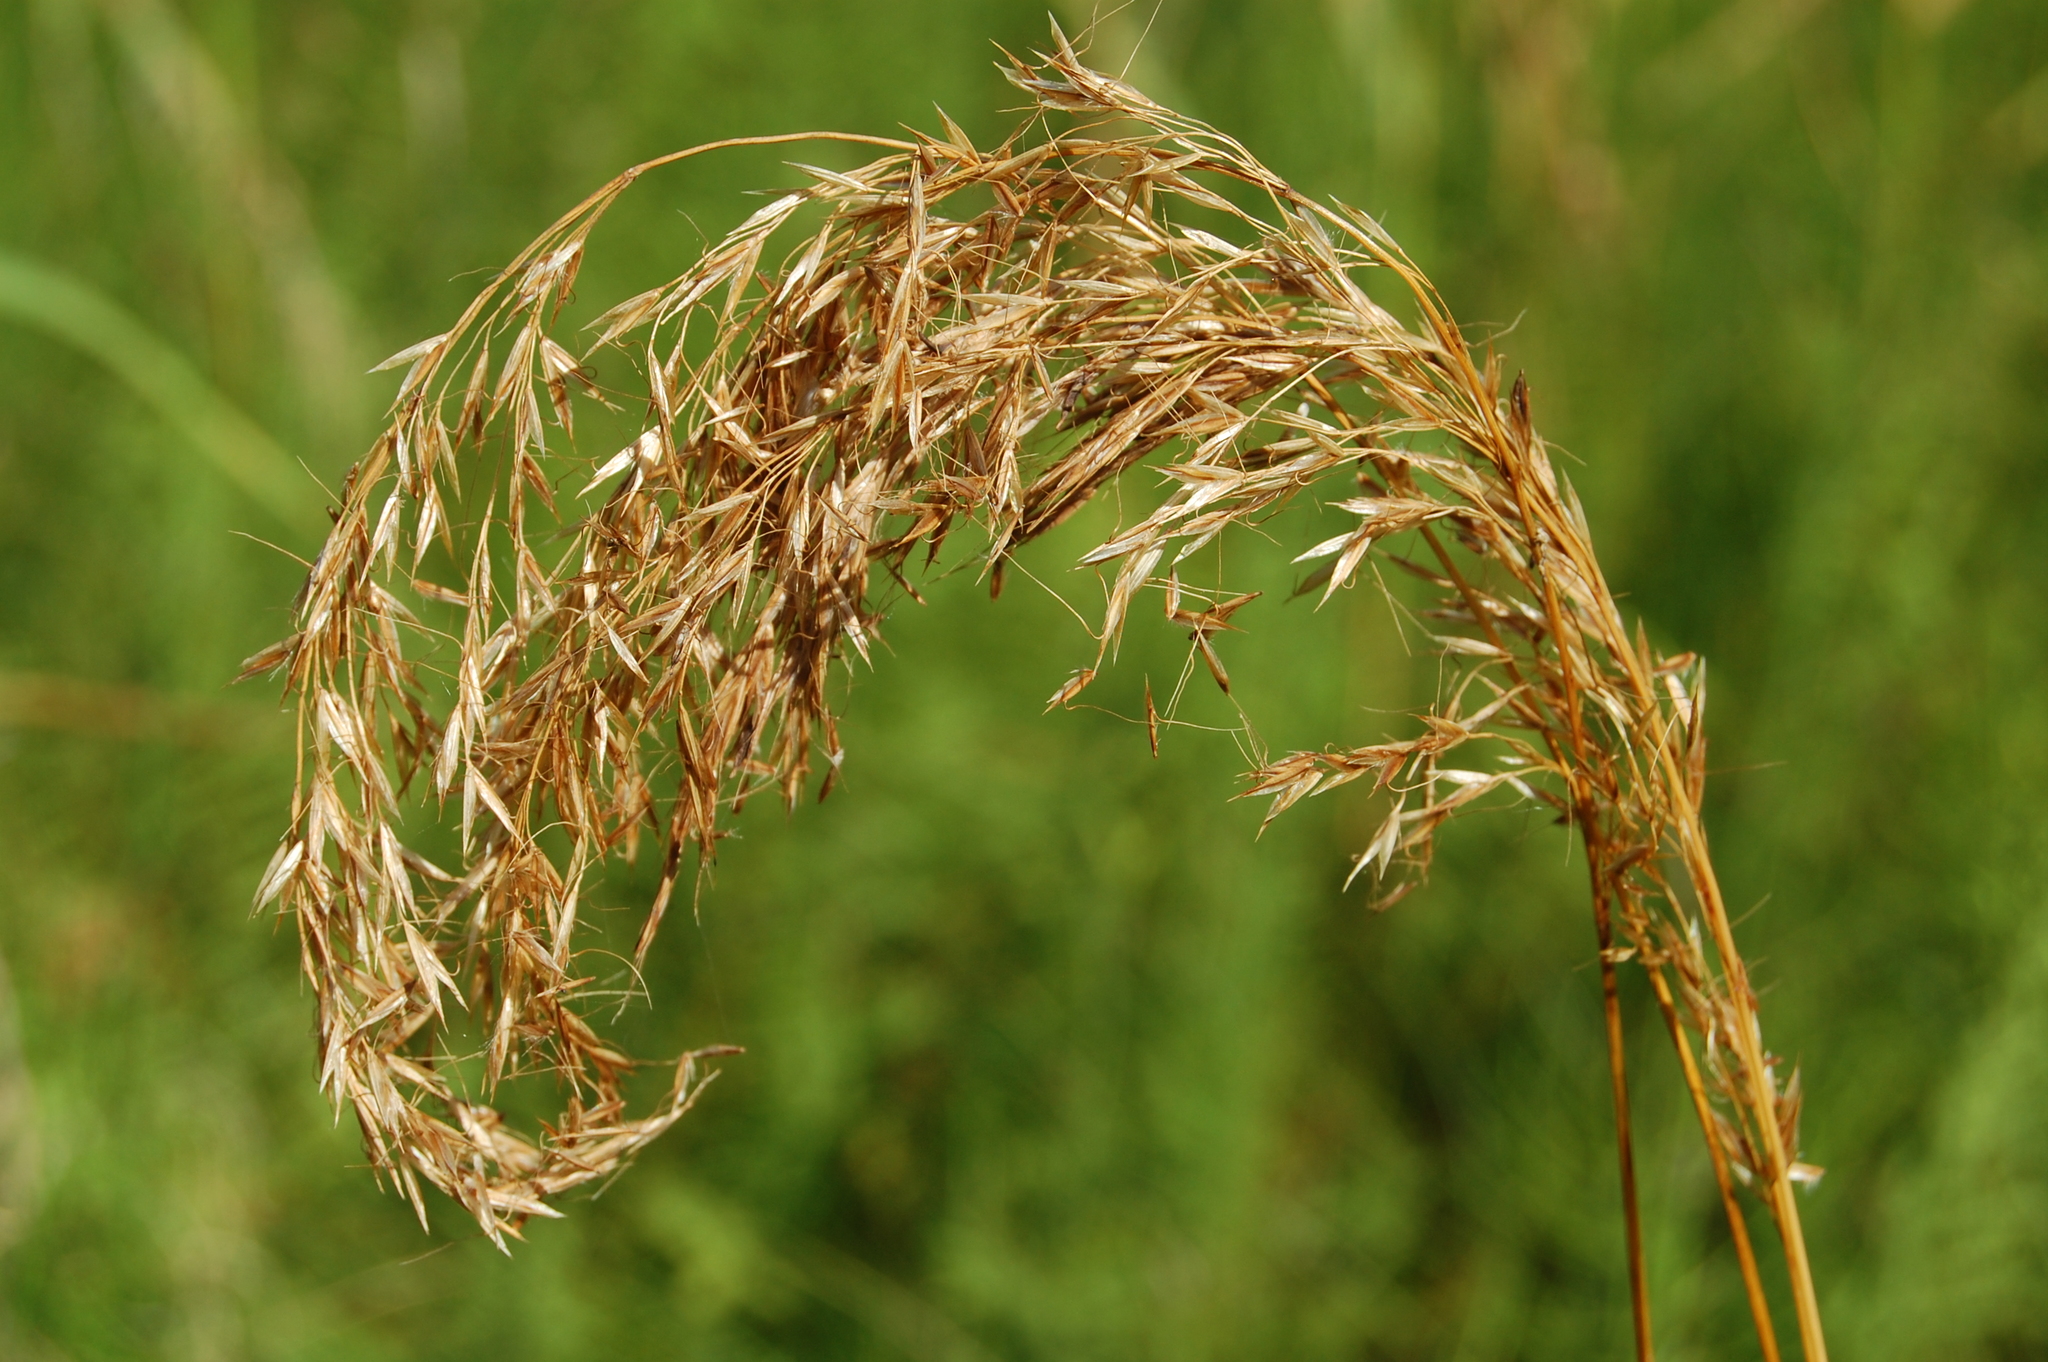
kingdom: Plantae
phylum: Tracheophyta
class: Liliopsida
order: Poales
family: Poaceae
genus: Sibirotrisetum
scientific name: Sibirotrisetum sibiricum
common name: Siberian false oat
